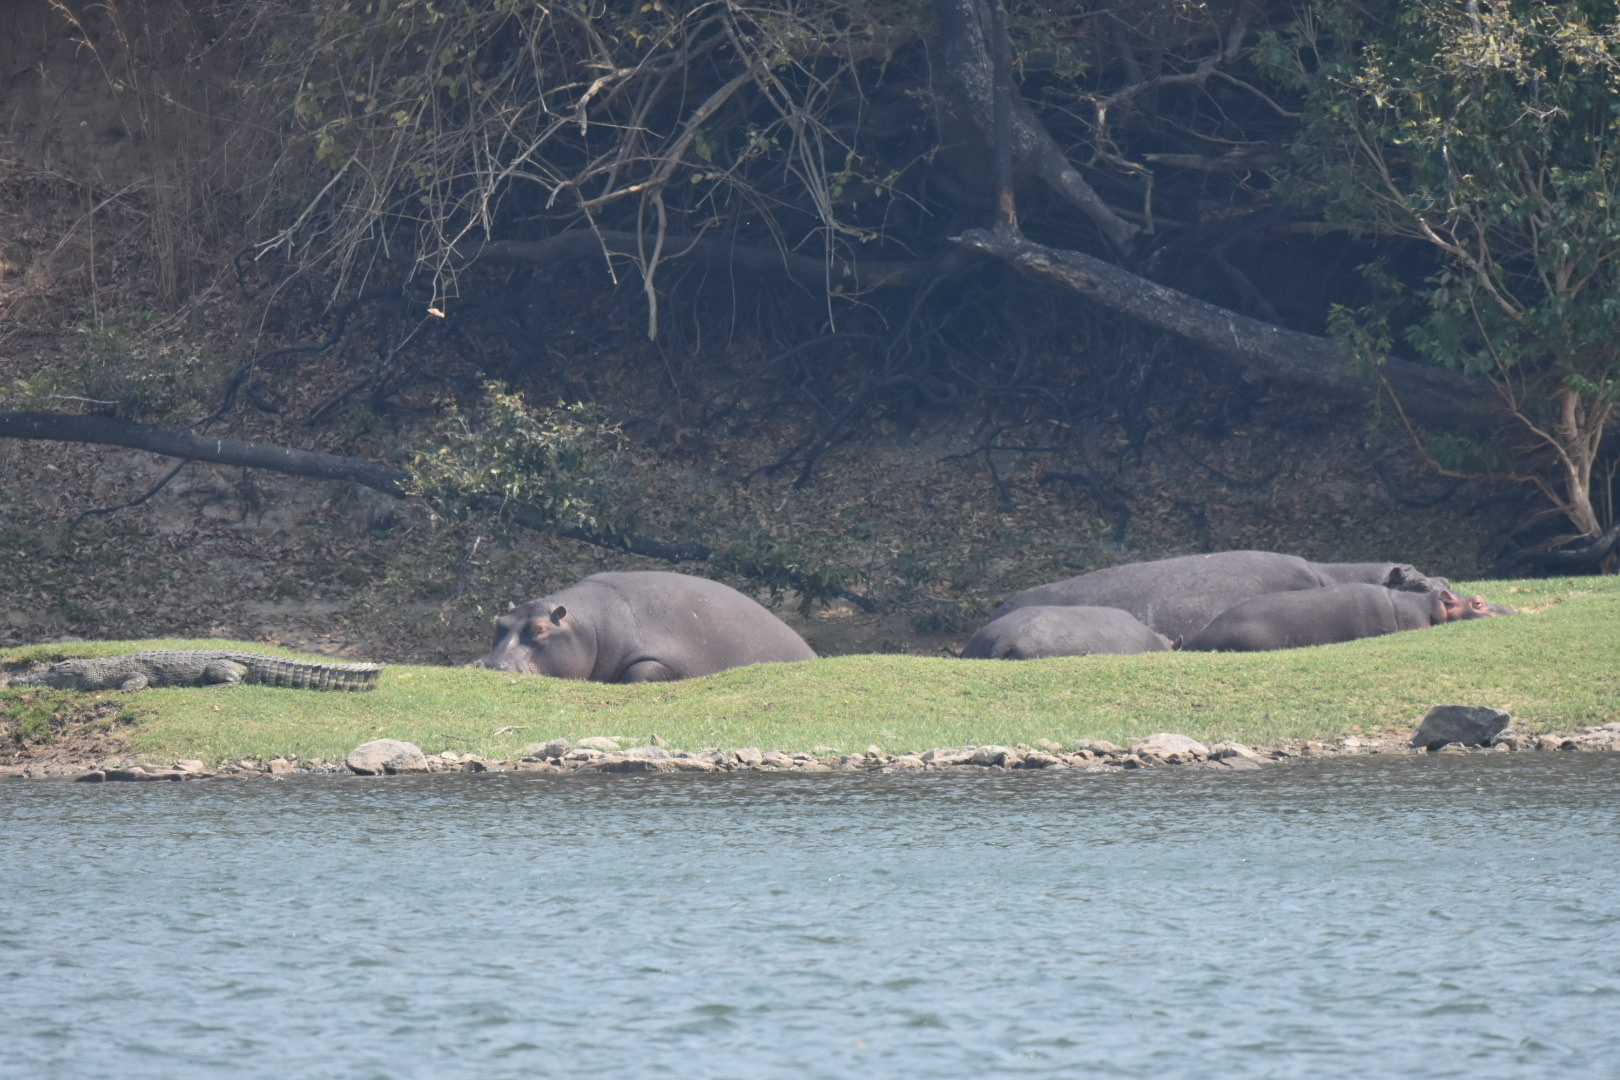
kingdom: Animalia
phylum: Chordata
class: Mammalia
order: Artiodactyla
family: Hippopotamidae
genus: Hippopotamus
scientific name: Hippopotamus amphibius
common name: Common hippopotamus
